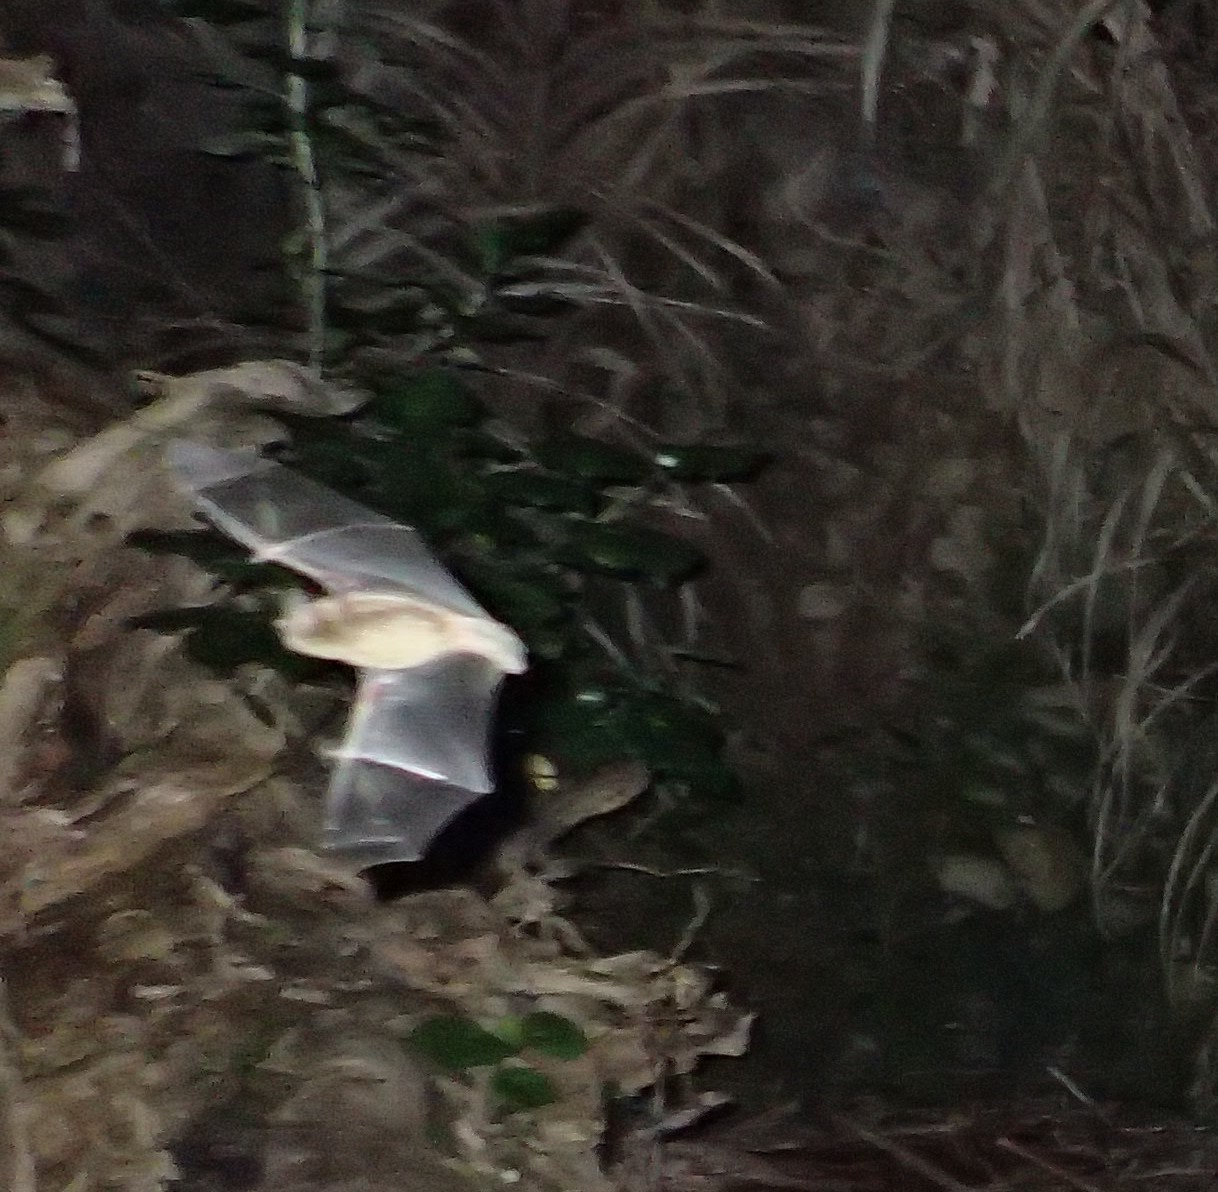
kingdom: Animalia
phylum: Chordata
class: Mammalia
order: Chiroptera
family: Mystacinidae
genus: Mystacina
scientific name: Mystacina tuberculata
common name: New zealand lesser short-tailed bat
